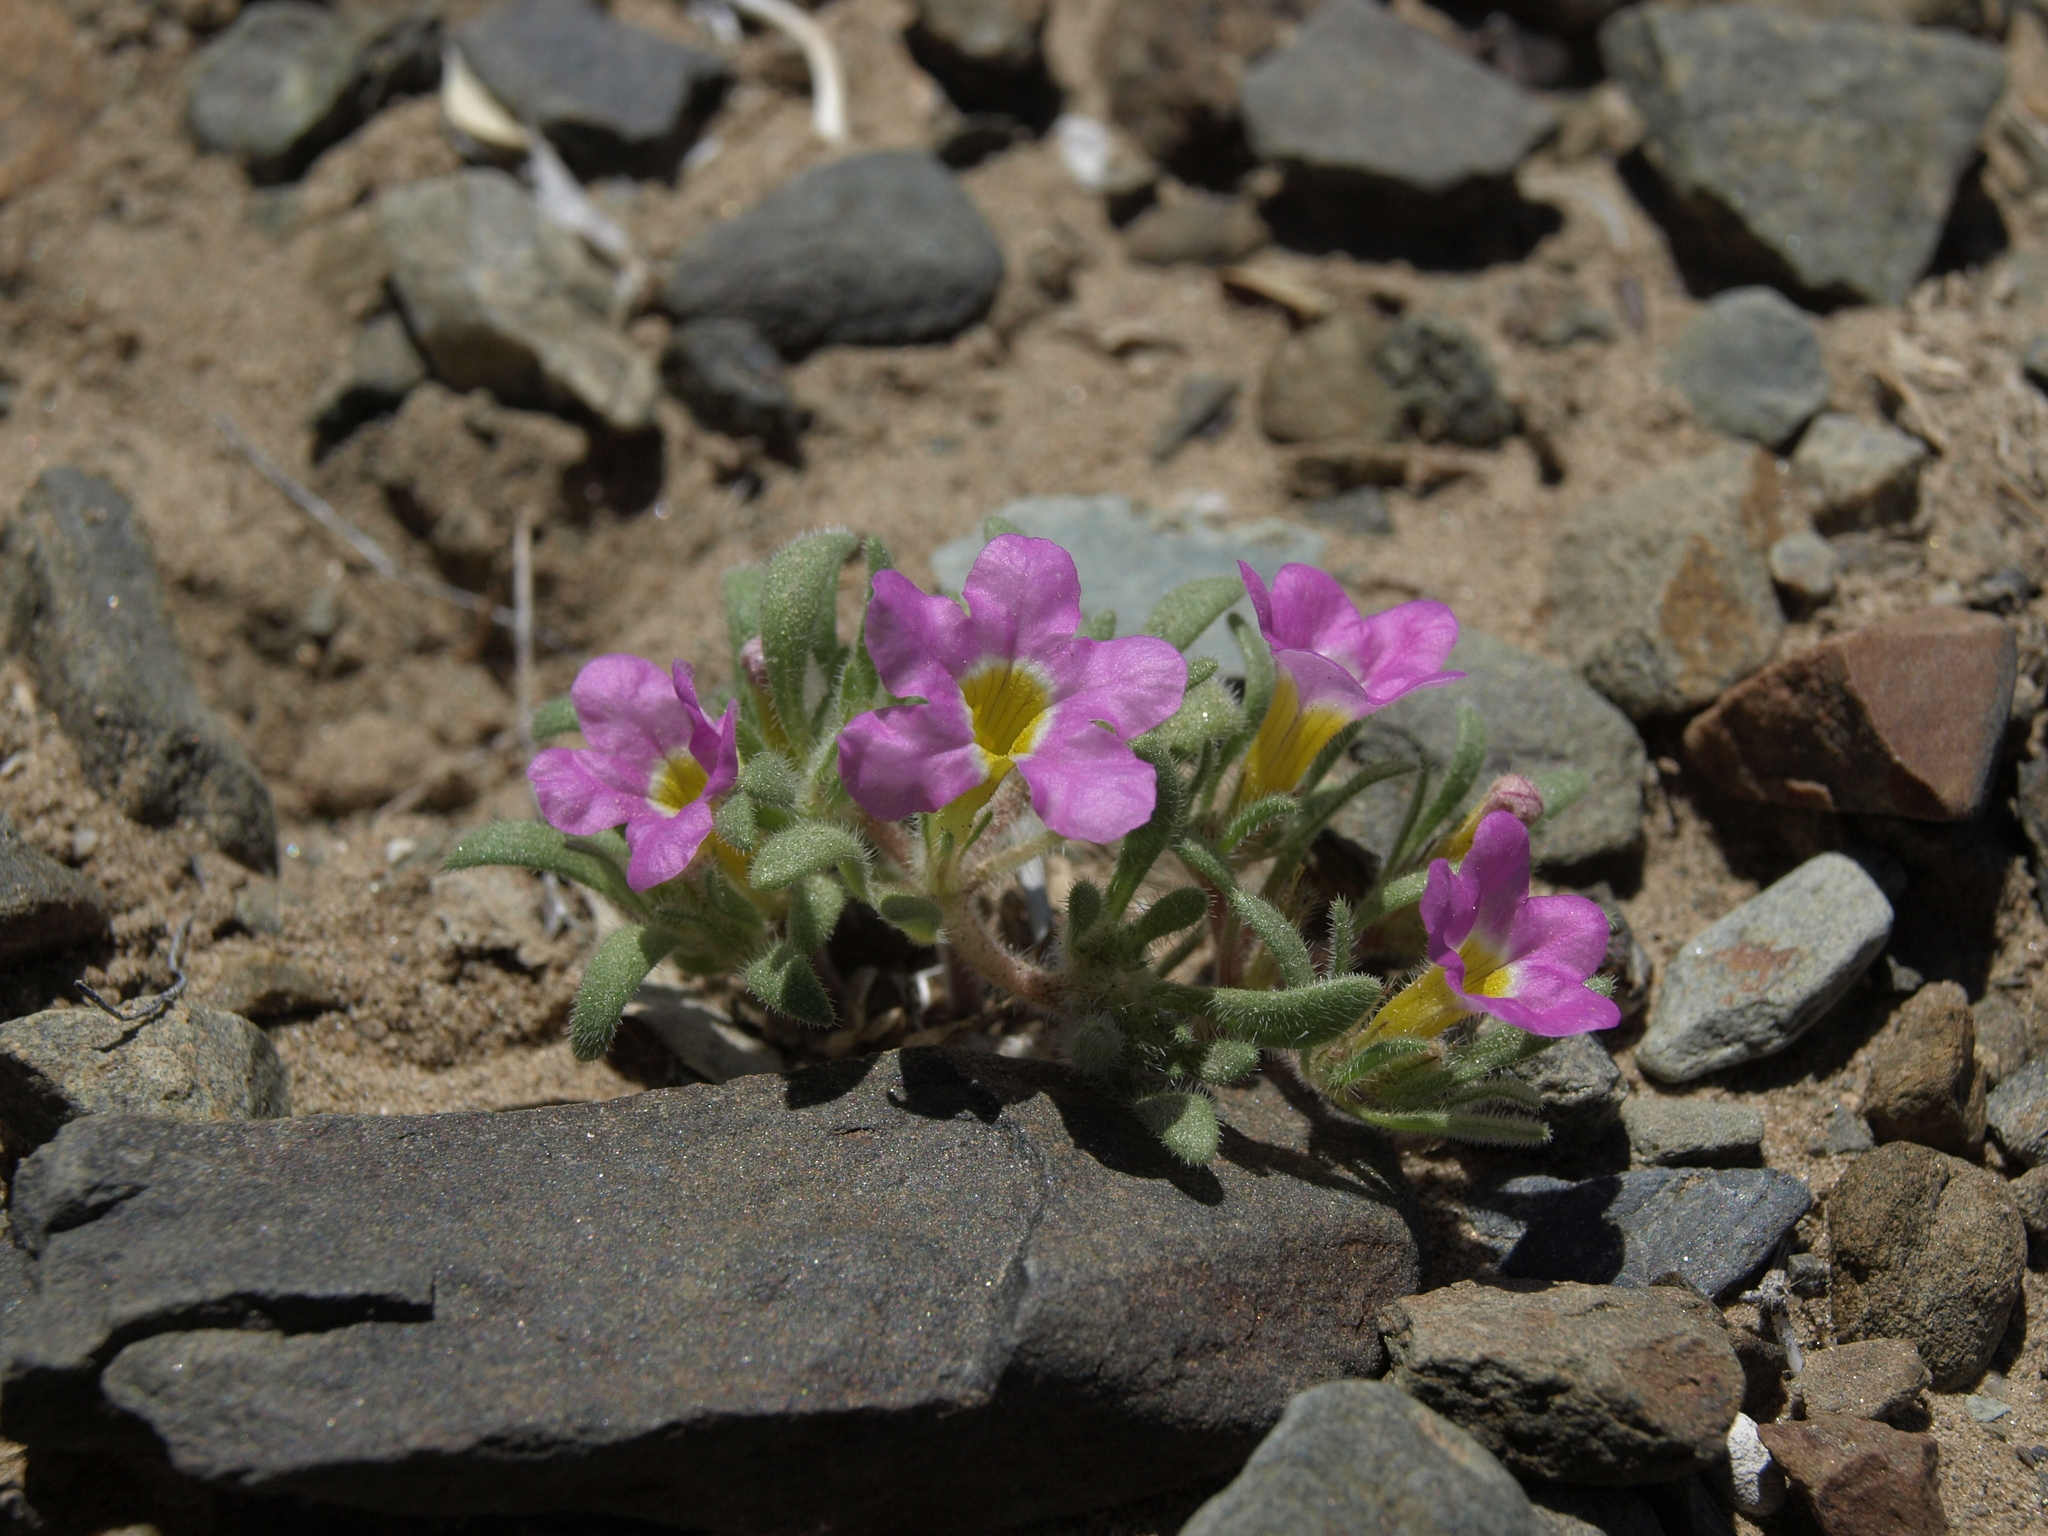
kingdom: Plantae
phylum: Tracheophyta
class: Magnoliopsida
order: Boraginales
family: Namaceae
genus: Nama
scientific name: Nama aretioides
